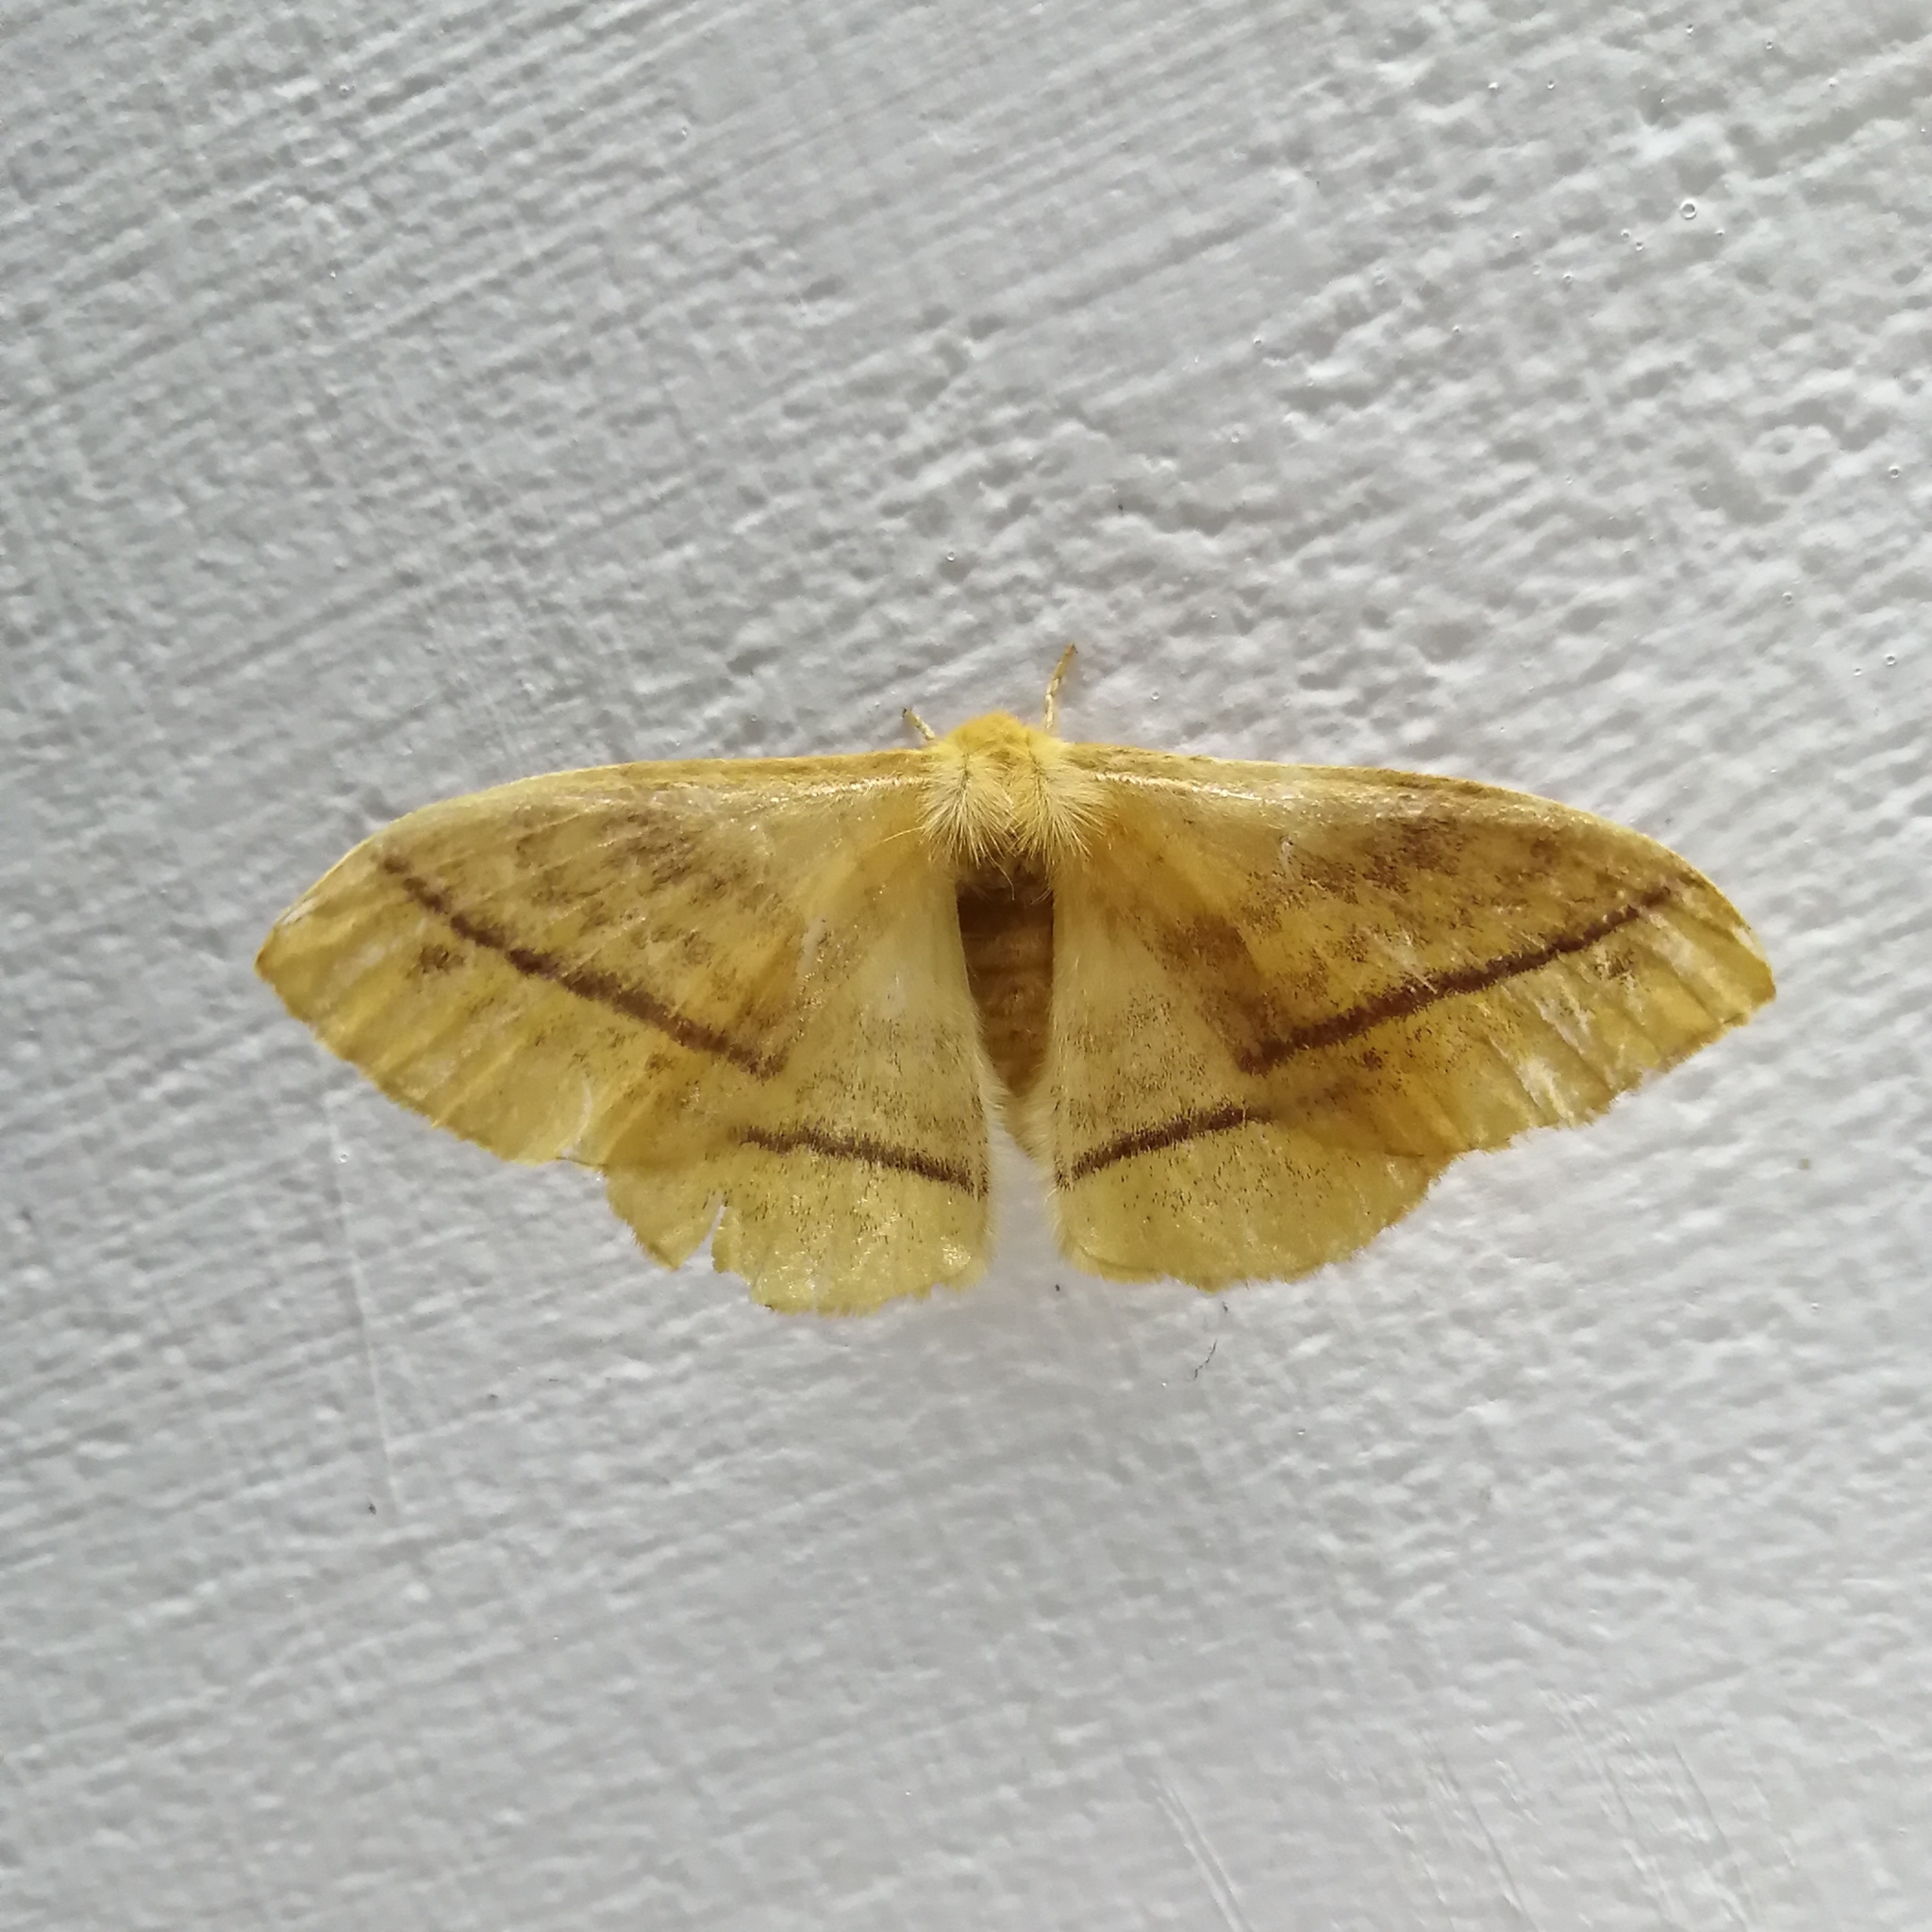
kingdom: Animalia
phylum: Arthropoda
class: Insecta
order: Lepidoptera
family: Eupterotidae
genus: Eupterote
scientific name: Eupterote
